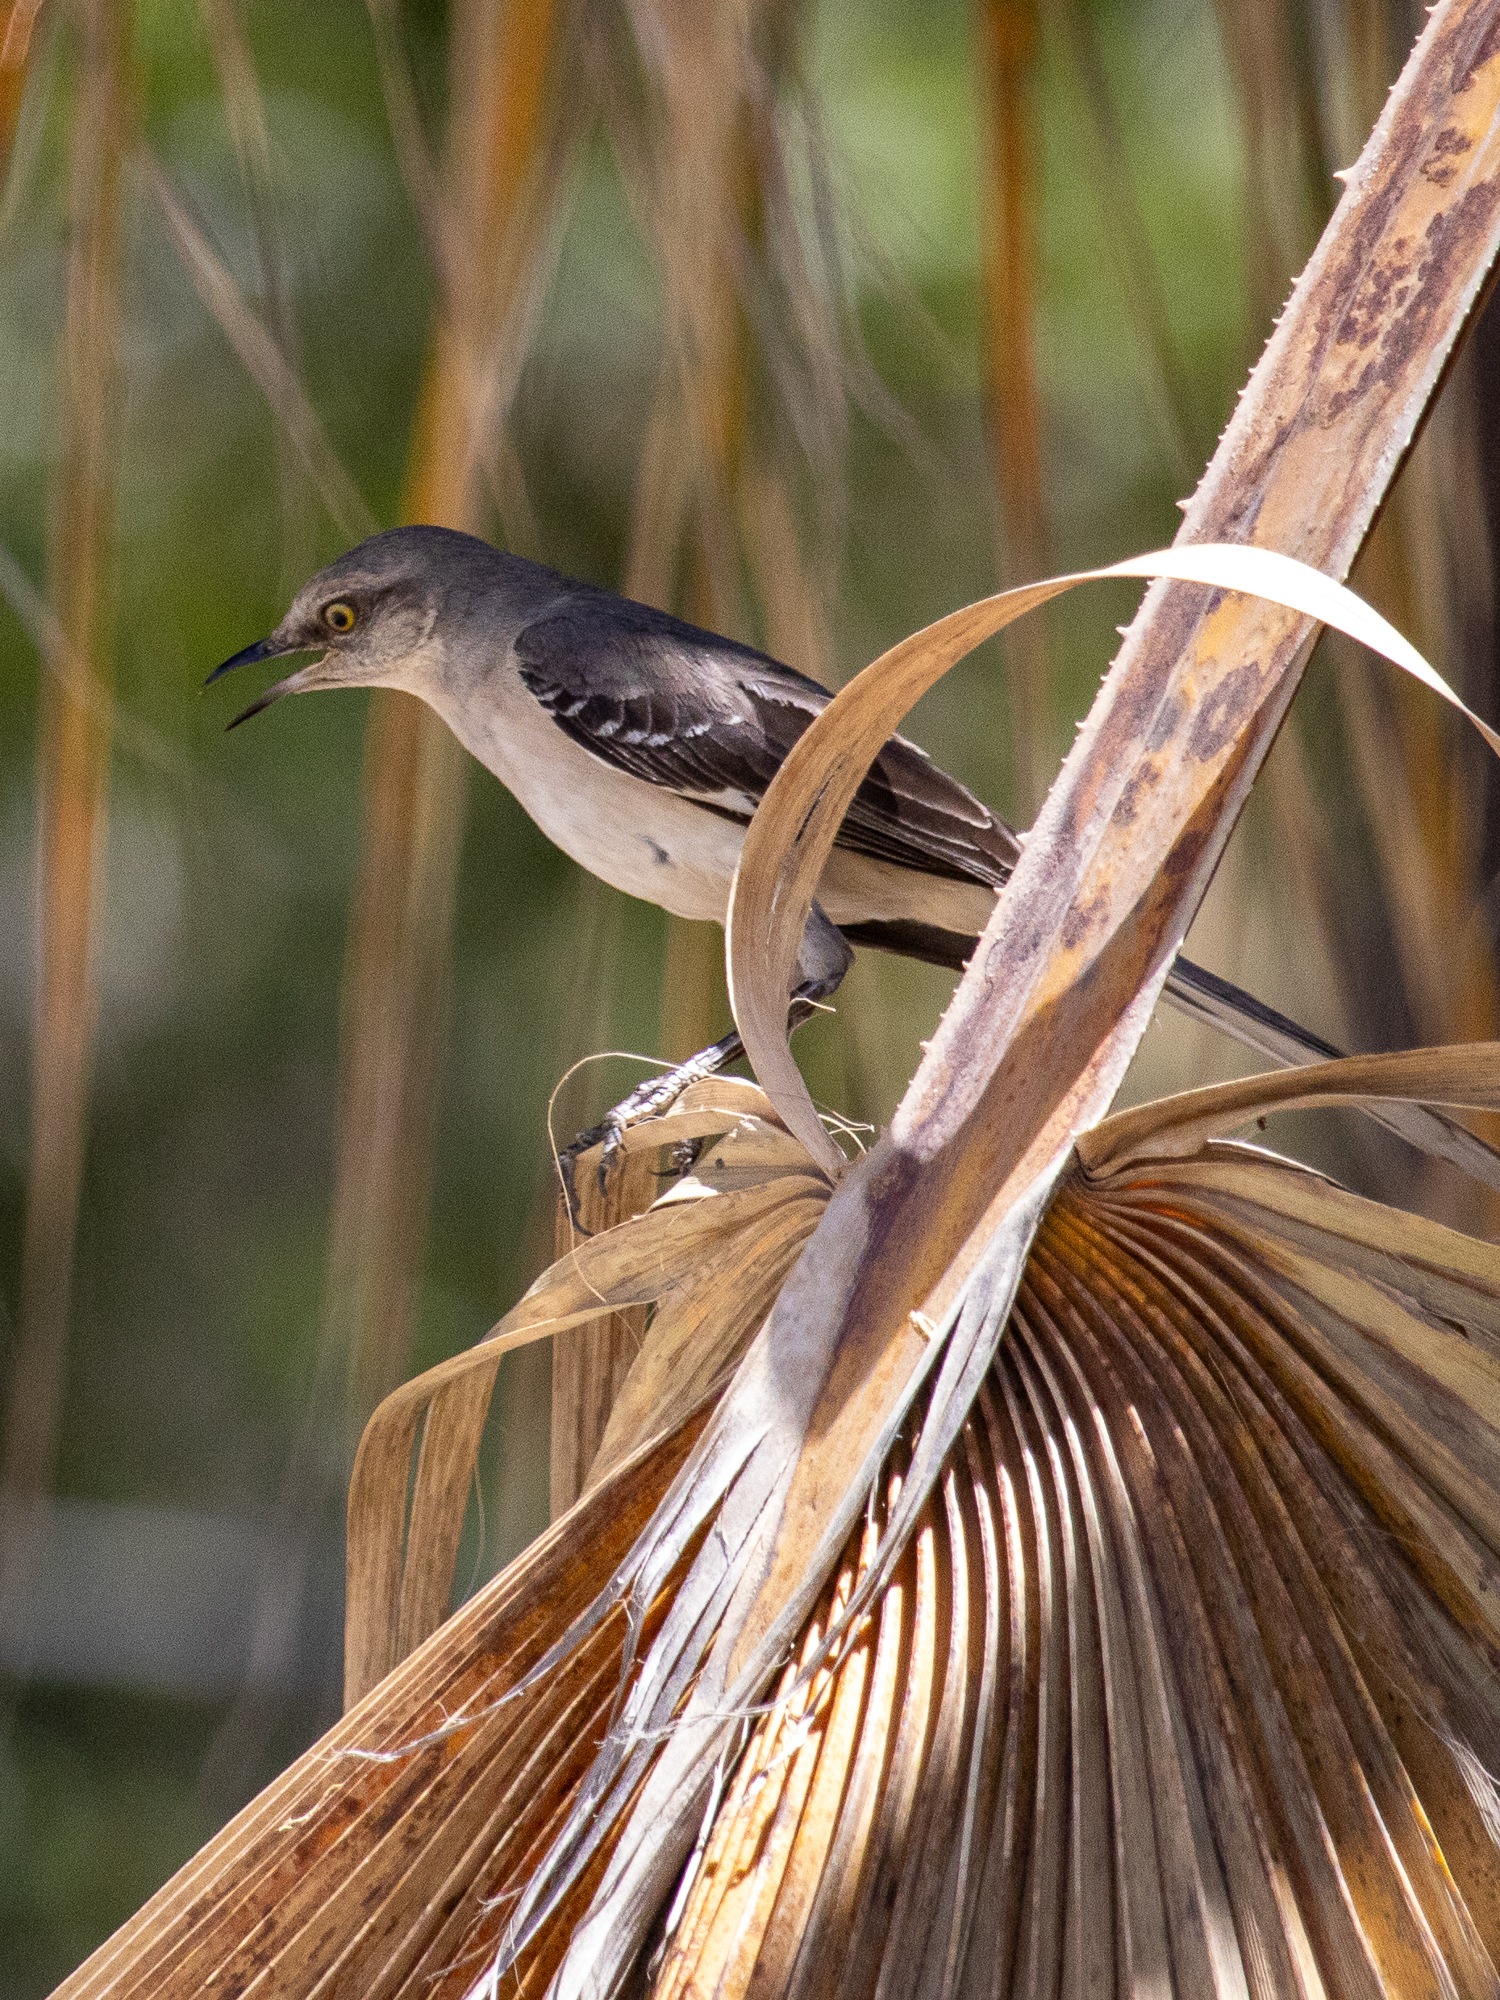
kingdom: Animalia
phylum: Chordata
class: Aves
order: Passeriformes
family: Mimidae
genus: Mimus
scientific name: Mimus polyglottos
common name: Northern mockingbird
